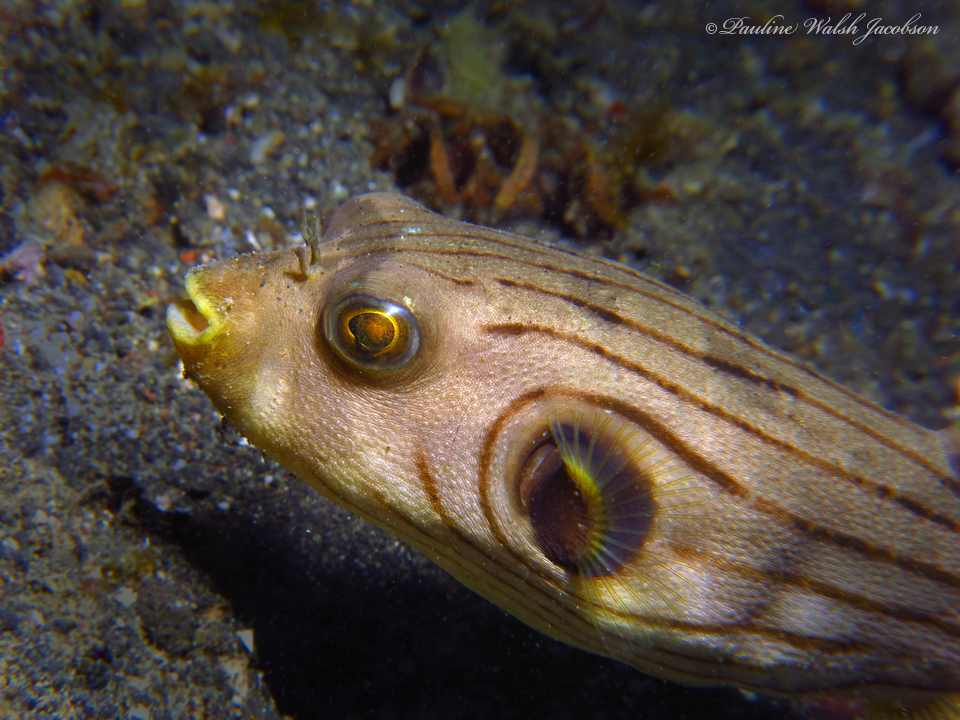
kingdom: Animalia
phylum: Chordata
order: Tetraodontiformes
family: Tetraodontidae
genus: Arothron
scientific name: Arothron manilensis
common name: Narrow-lined puffer
